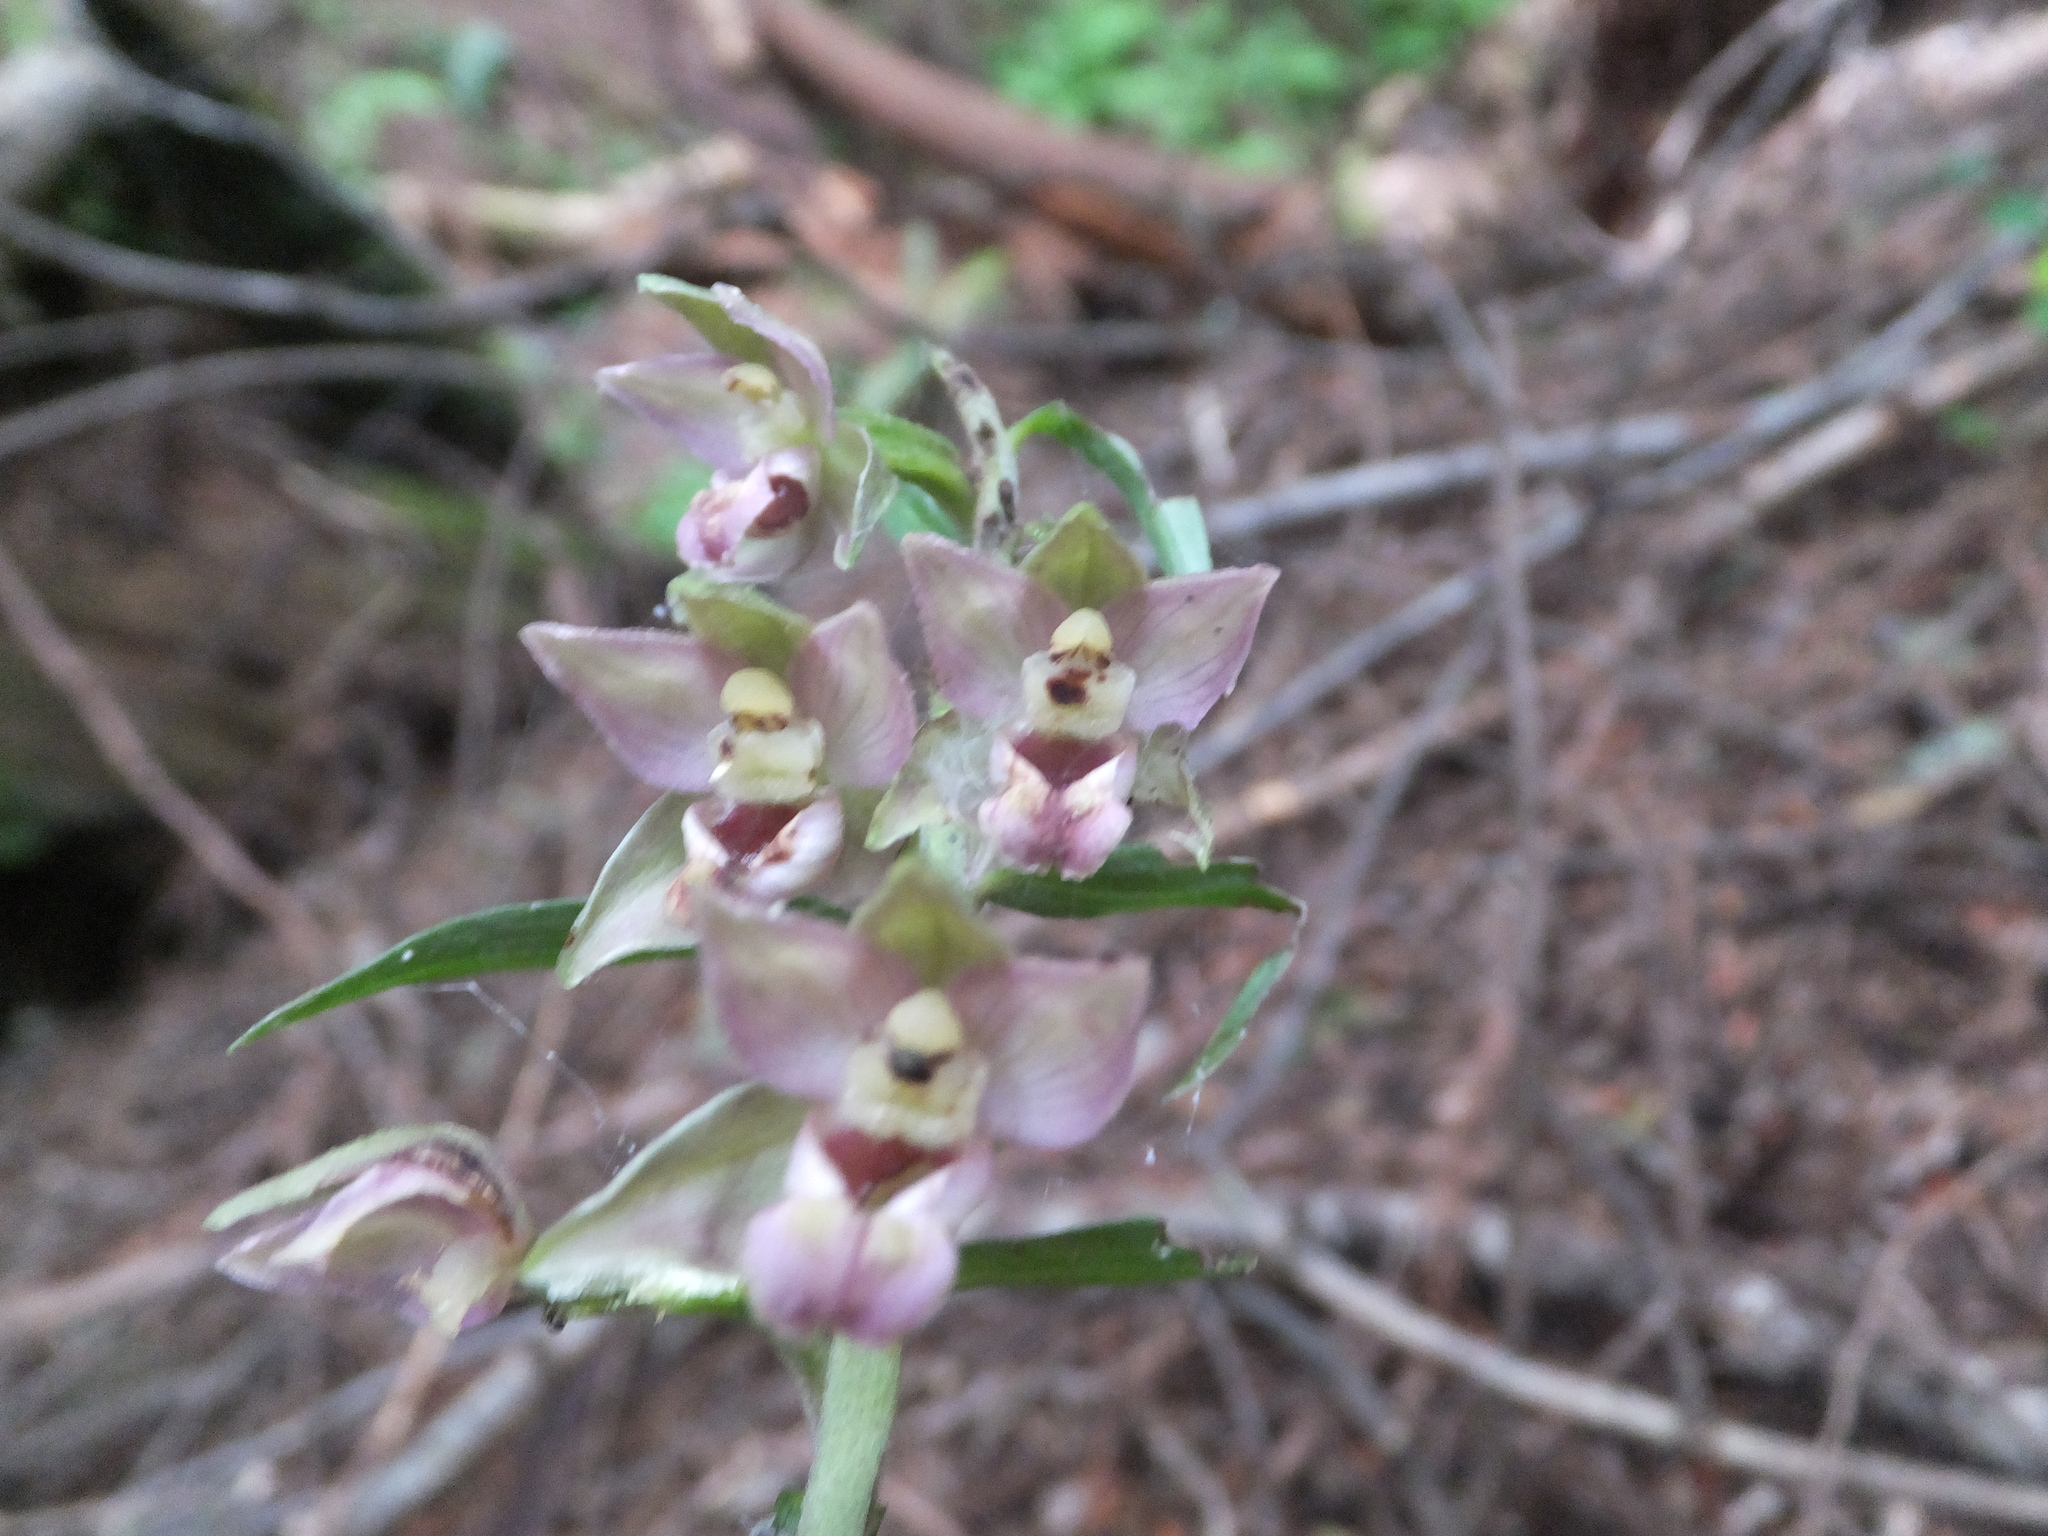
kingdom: Plantae
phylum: Tracheophyta
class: Liliopsida
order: Asparagales
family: Orchidaceae
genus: Epipactis
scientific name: Epipactis helleborine
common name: Broad-leaved helleborine
